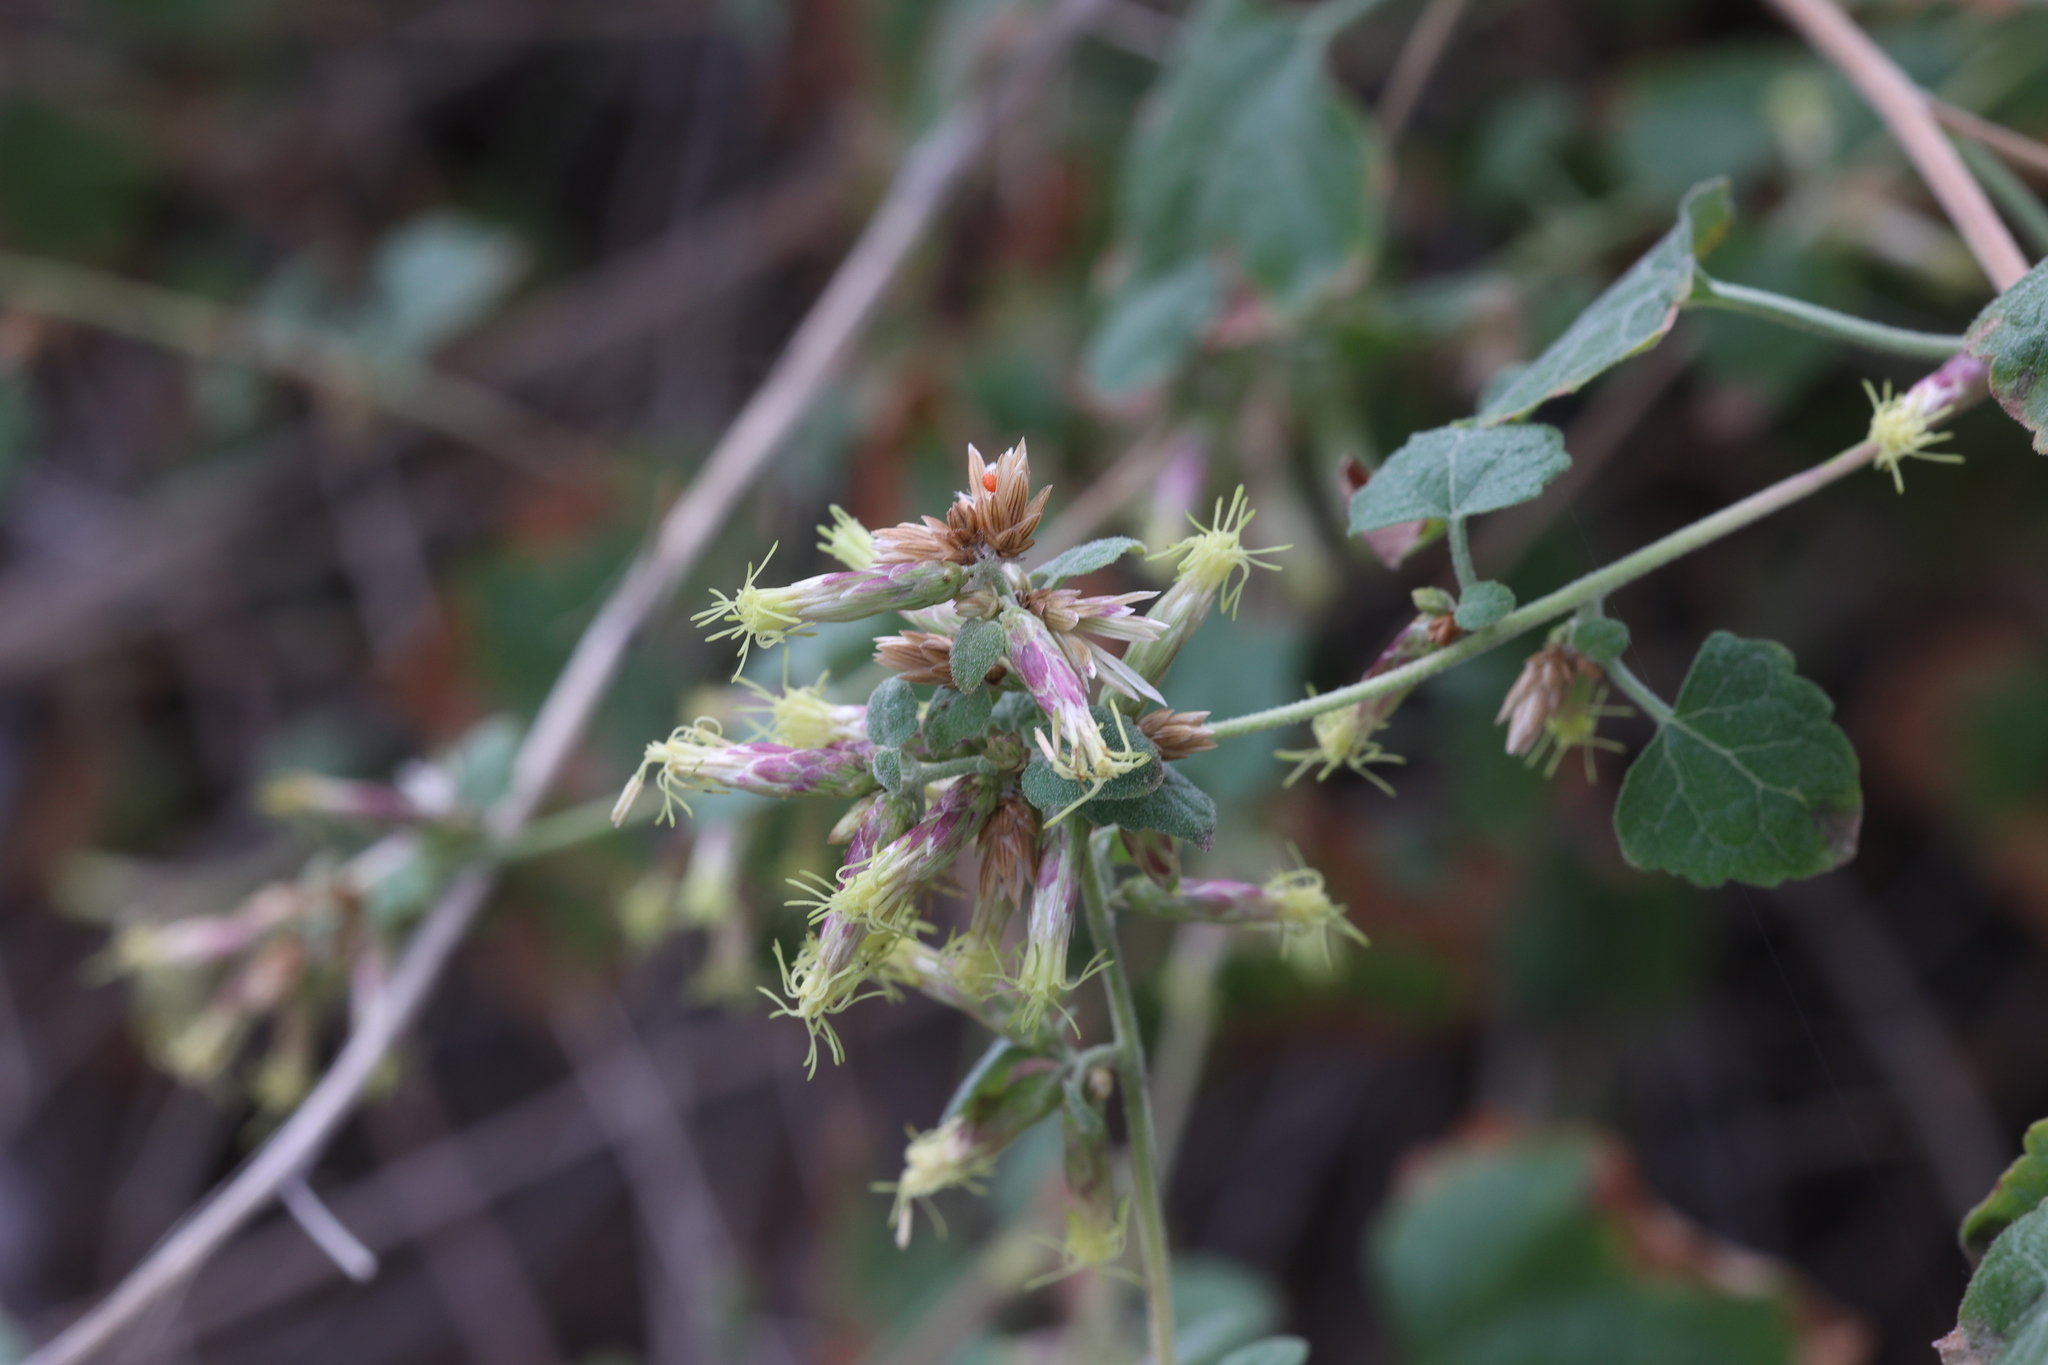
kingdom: Plantae
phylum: Tracheophyta
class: Magnoliopsida
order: Asterales
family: Asteraceae
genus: Brickellia
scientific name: Brickellia californica
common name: California brickellbush
